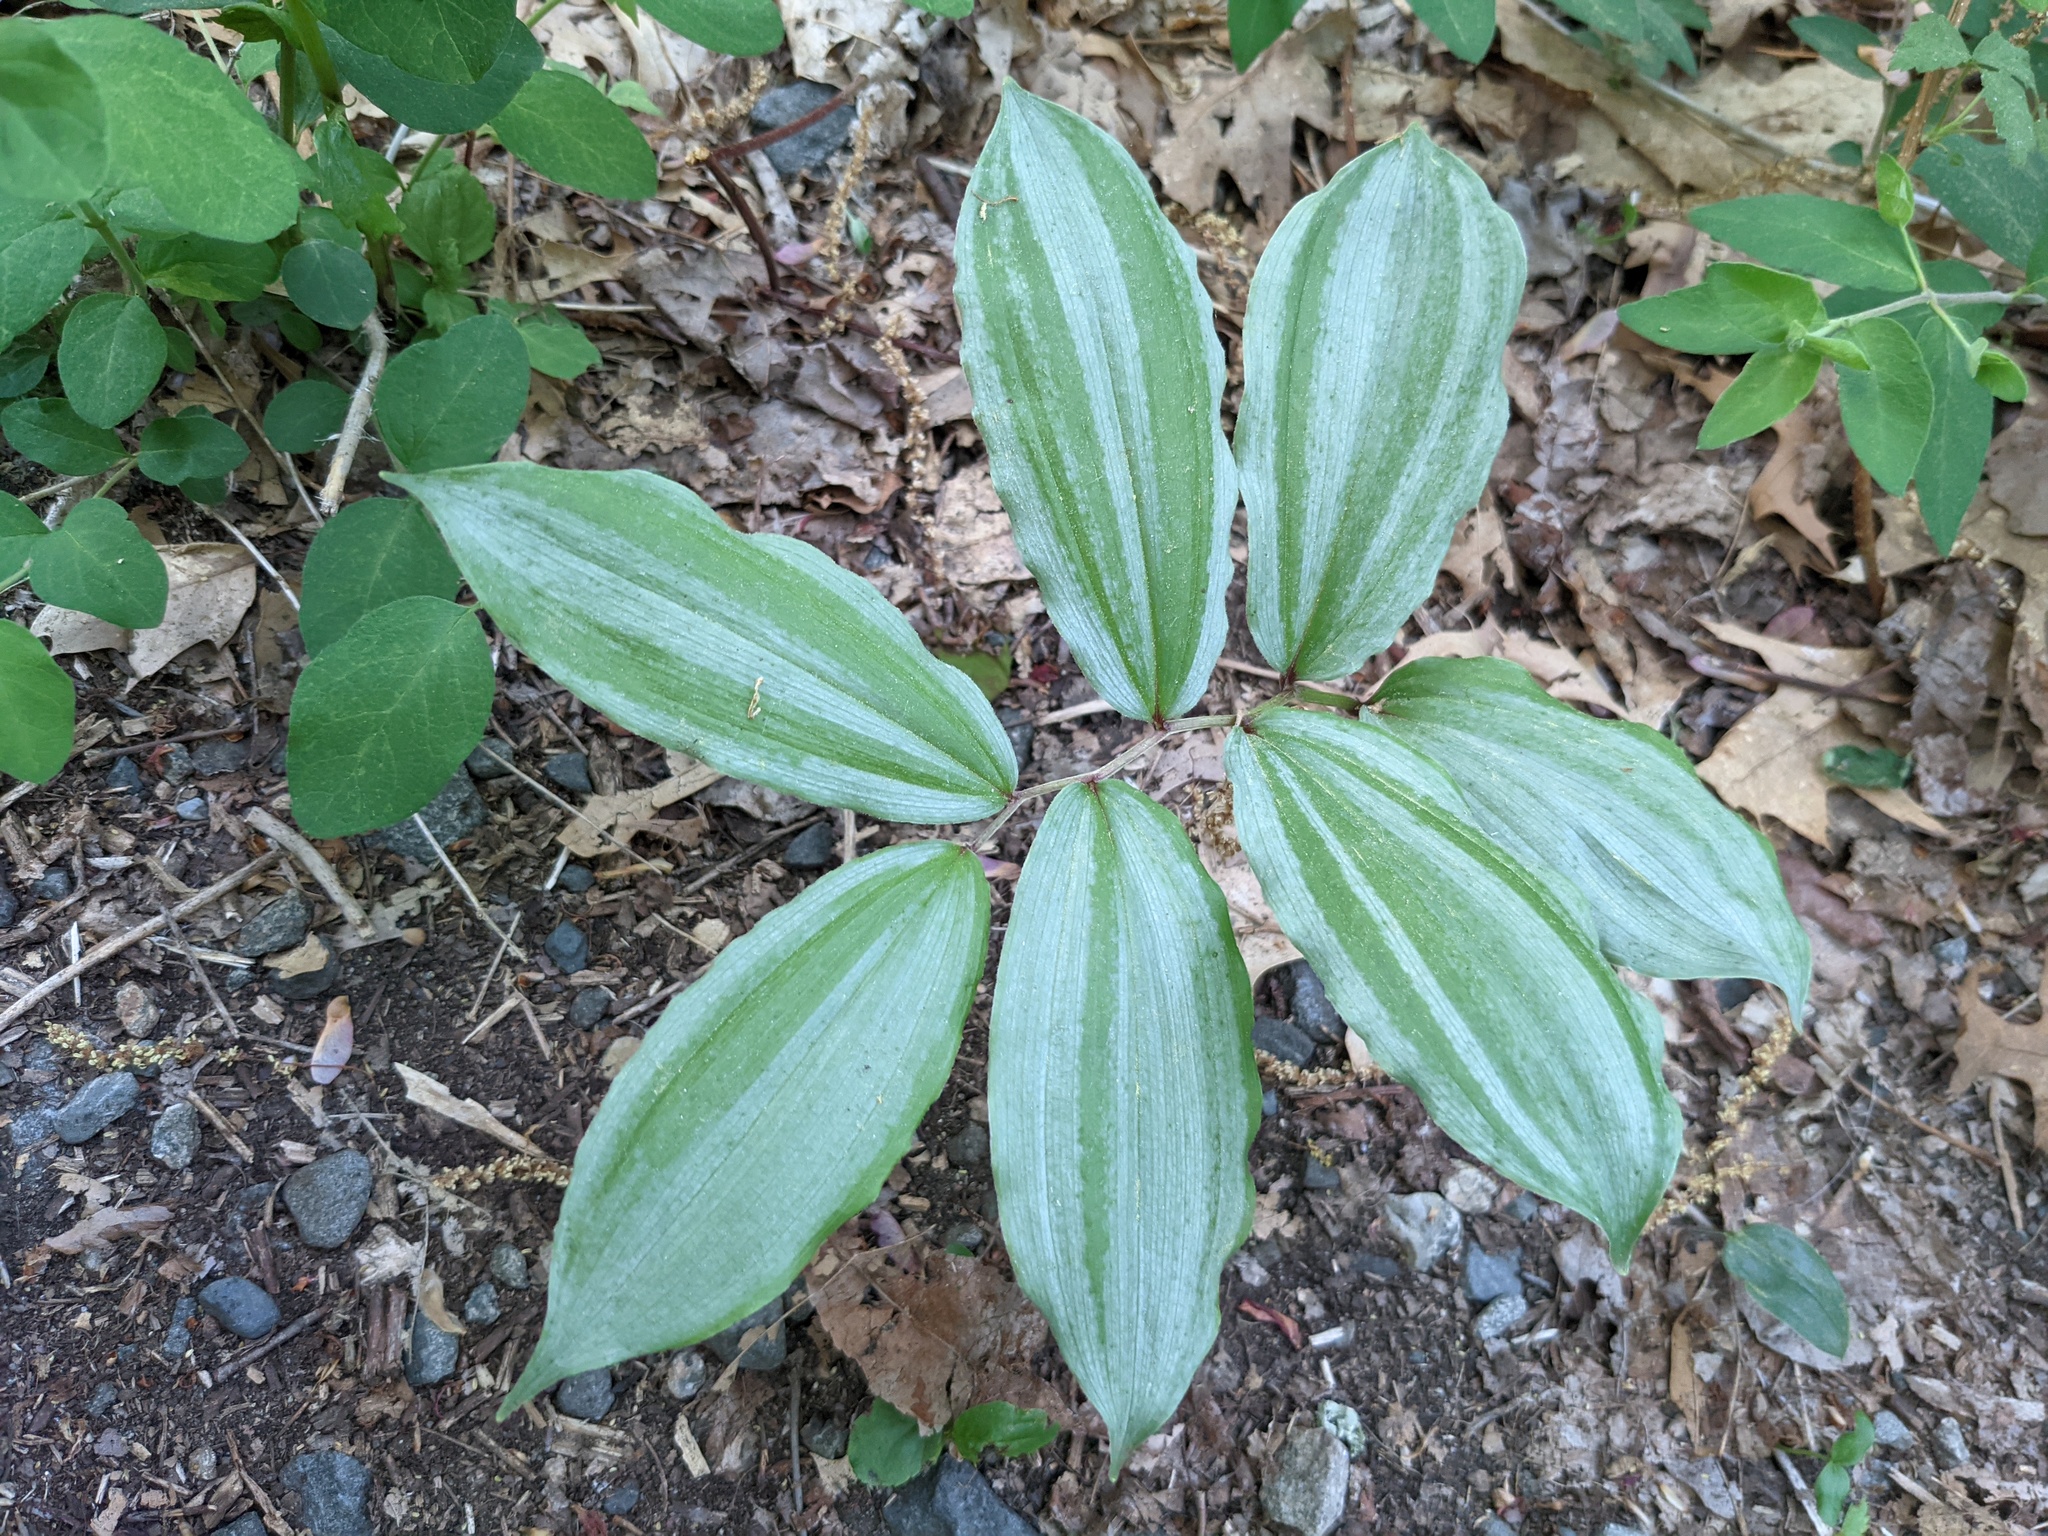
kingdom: Plantae
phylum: Tracheophyta
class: Liliopsida
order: Asparagales
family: Asparagaceae
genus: Maianthemum
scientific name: Maianthemum racemosum
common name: False spikenard
